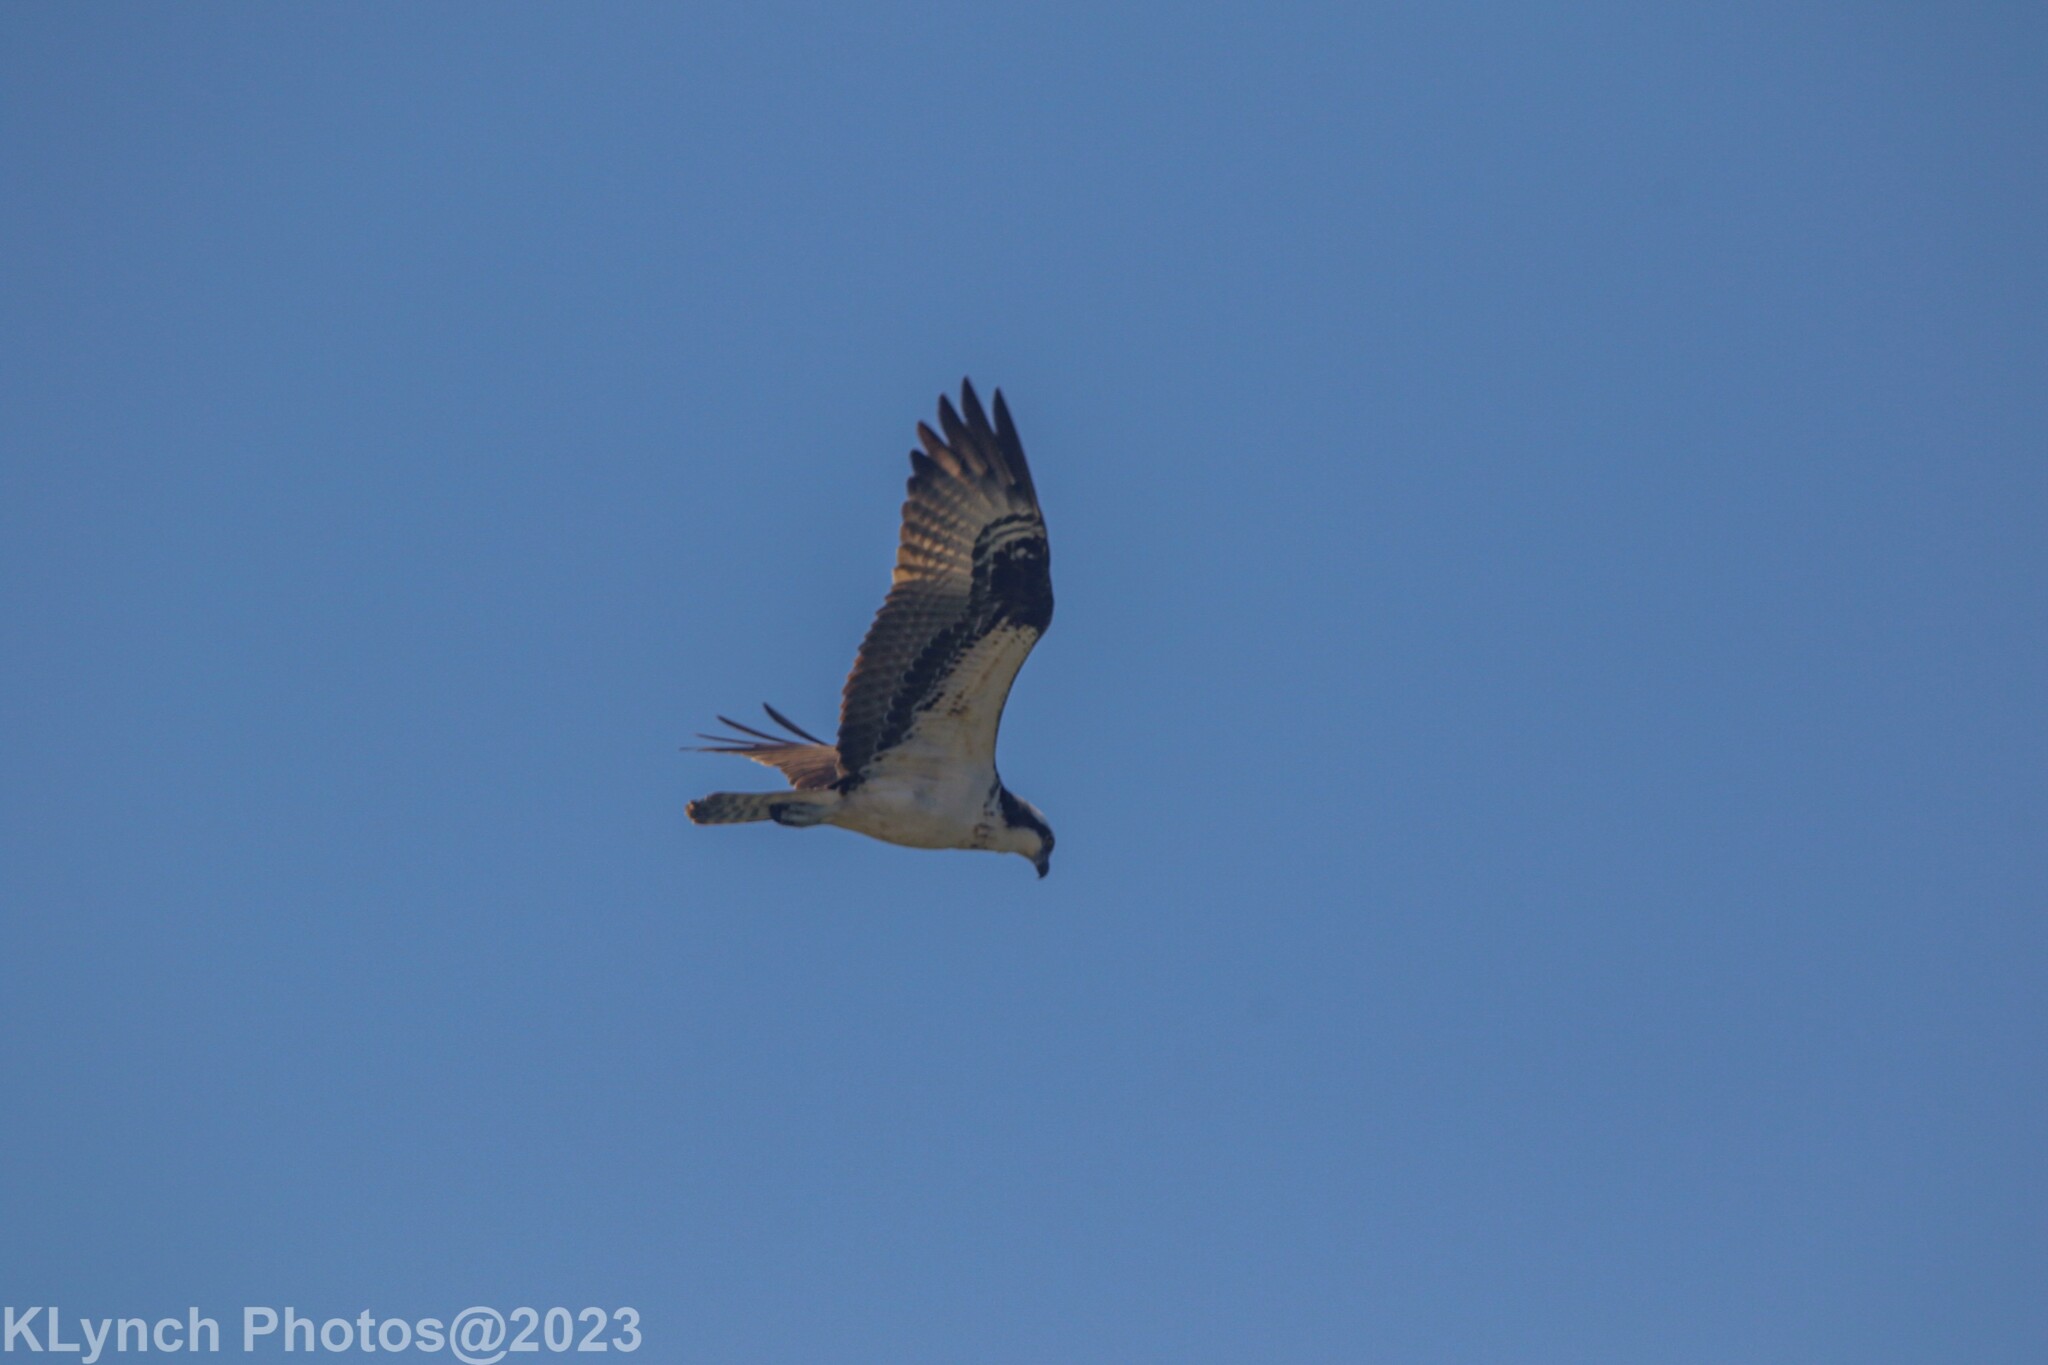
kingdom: Animalia
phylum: Chordata
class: Aves
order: Accipitriformes
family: Pandionidae
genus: Pandion
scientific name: Pandion haliaetus
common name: Osprey
